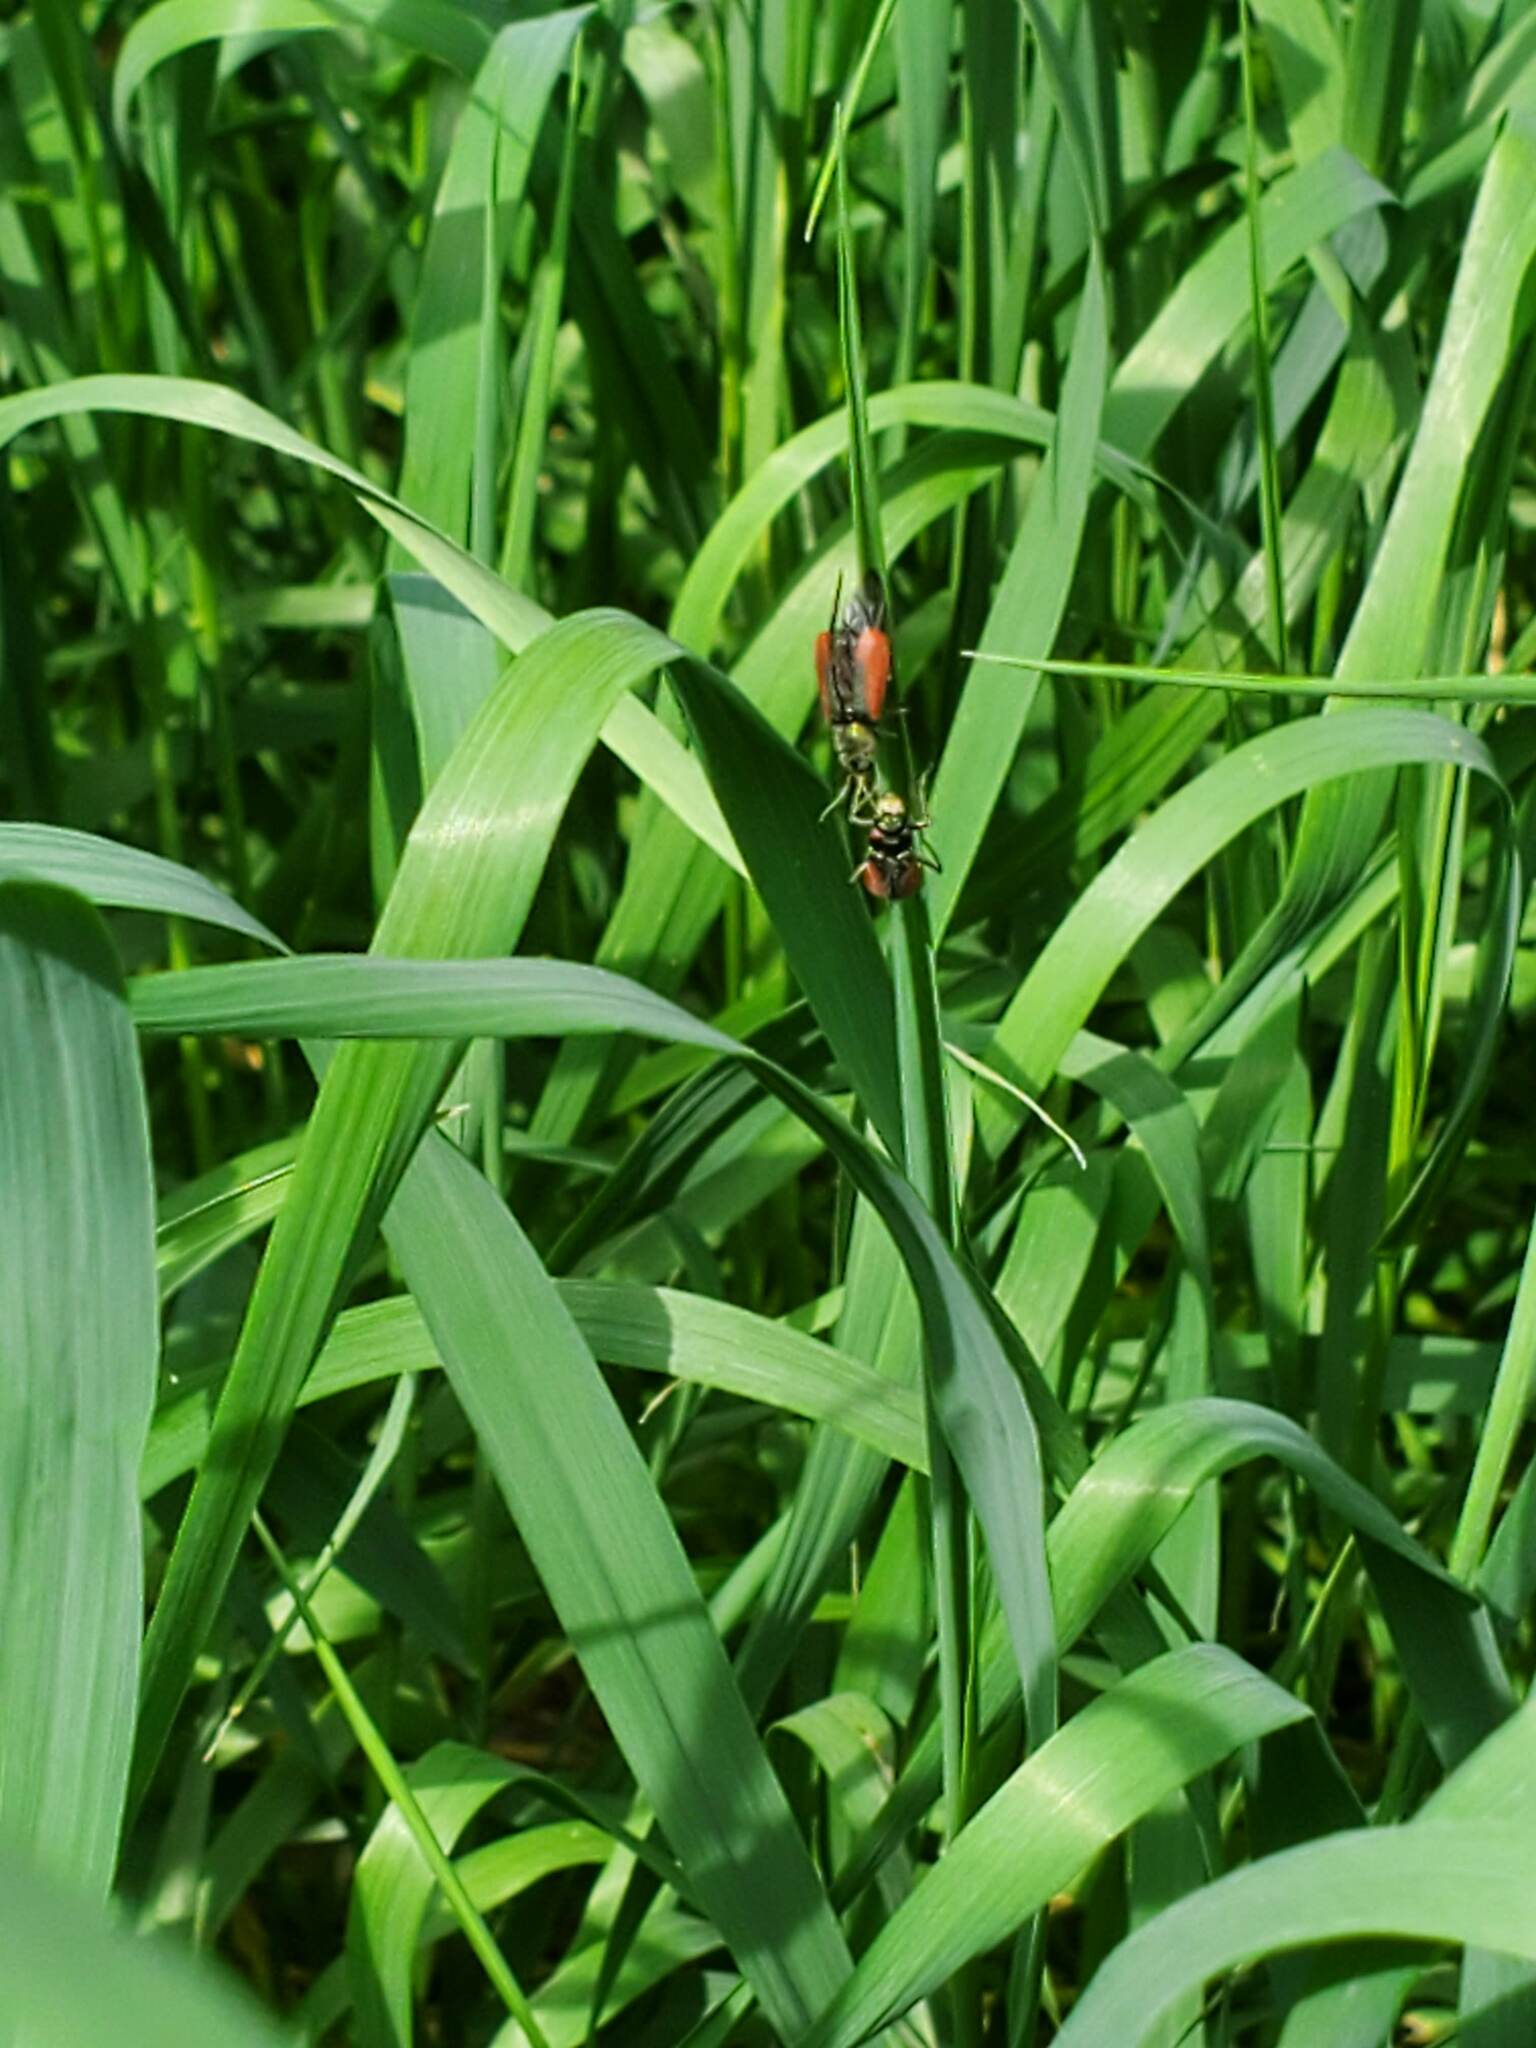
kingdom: Animalia
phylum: Arthropoda
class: Insecta
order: Coleoptera
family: Melyridae
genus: Malachius
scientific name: Malachius aeneus
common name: Scarlet malachite beetle
